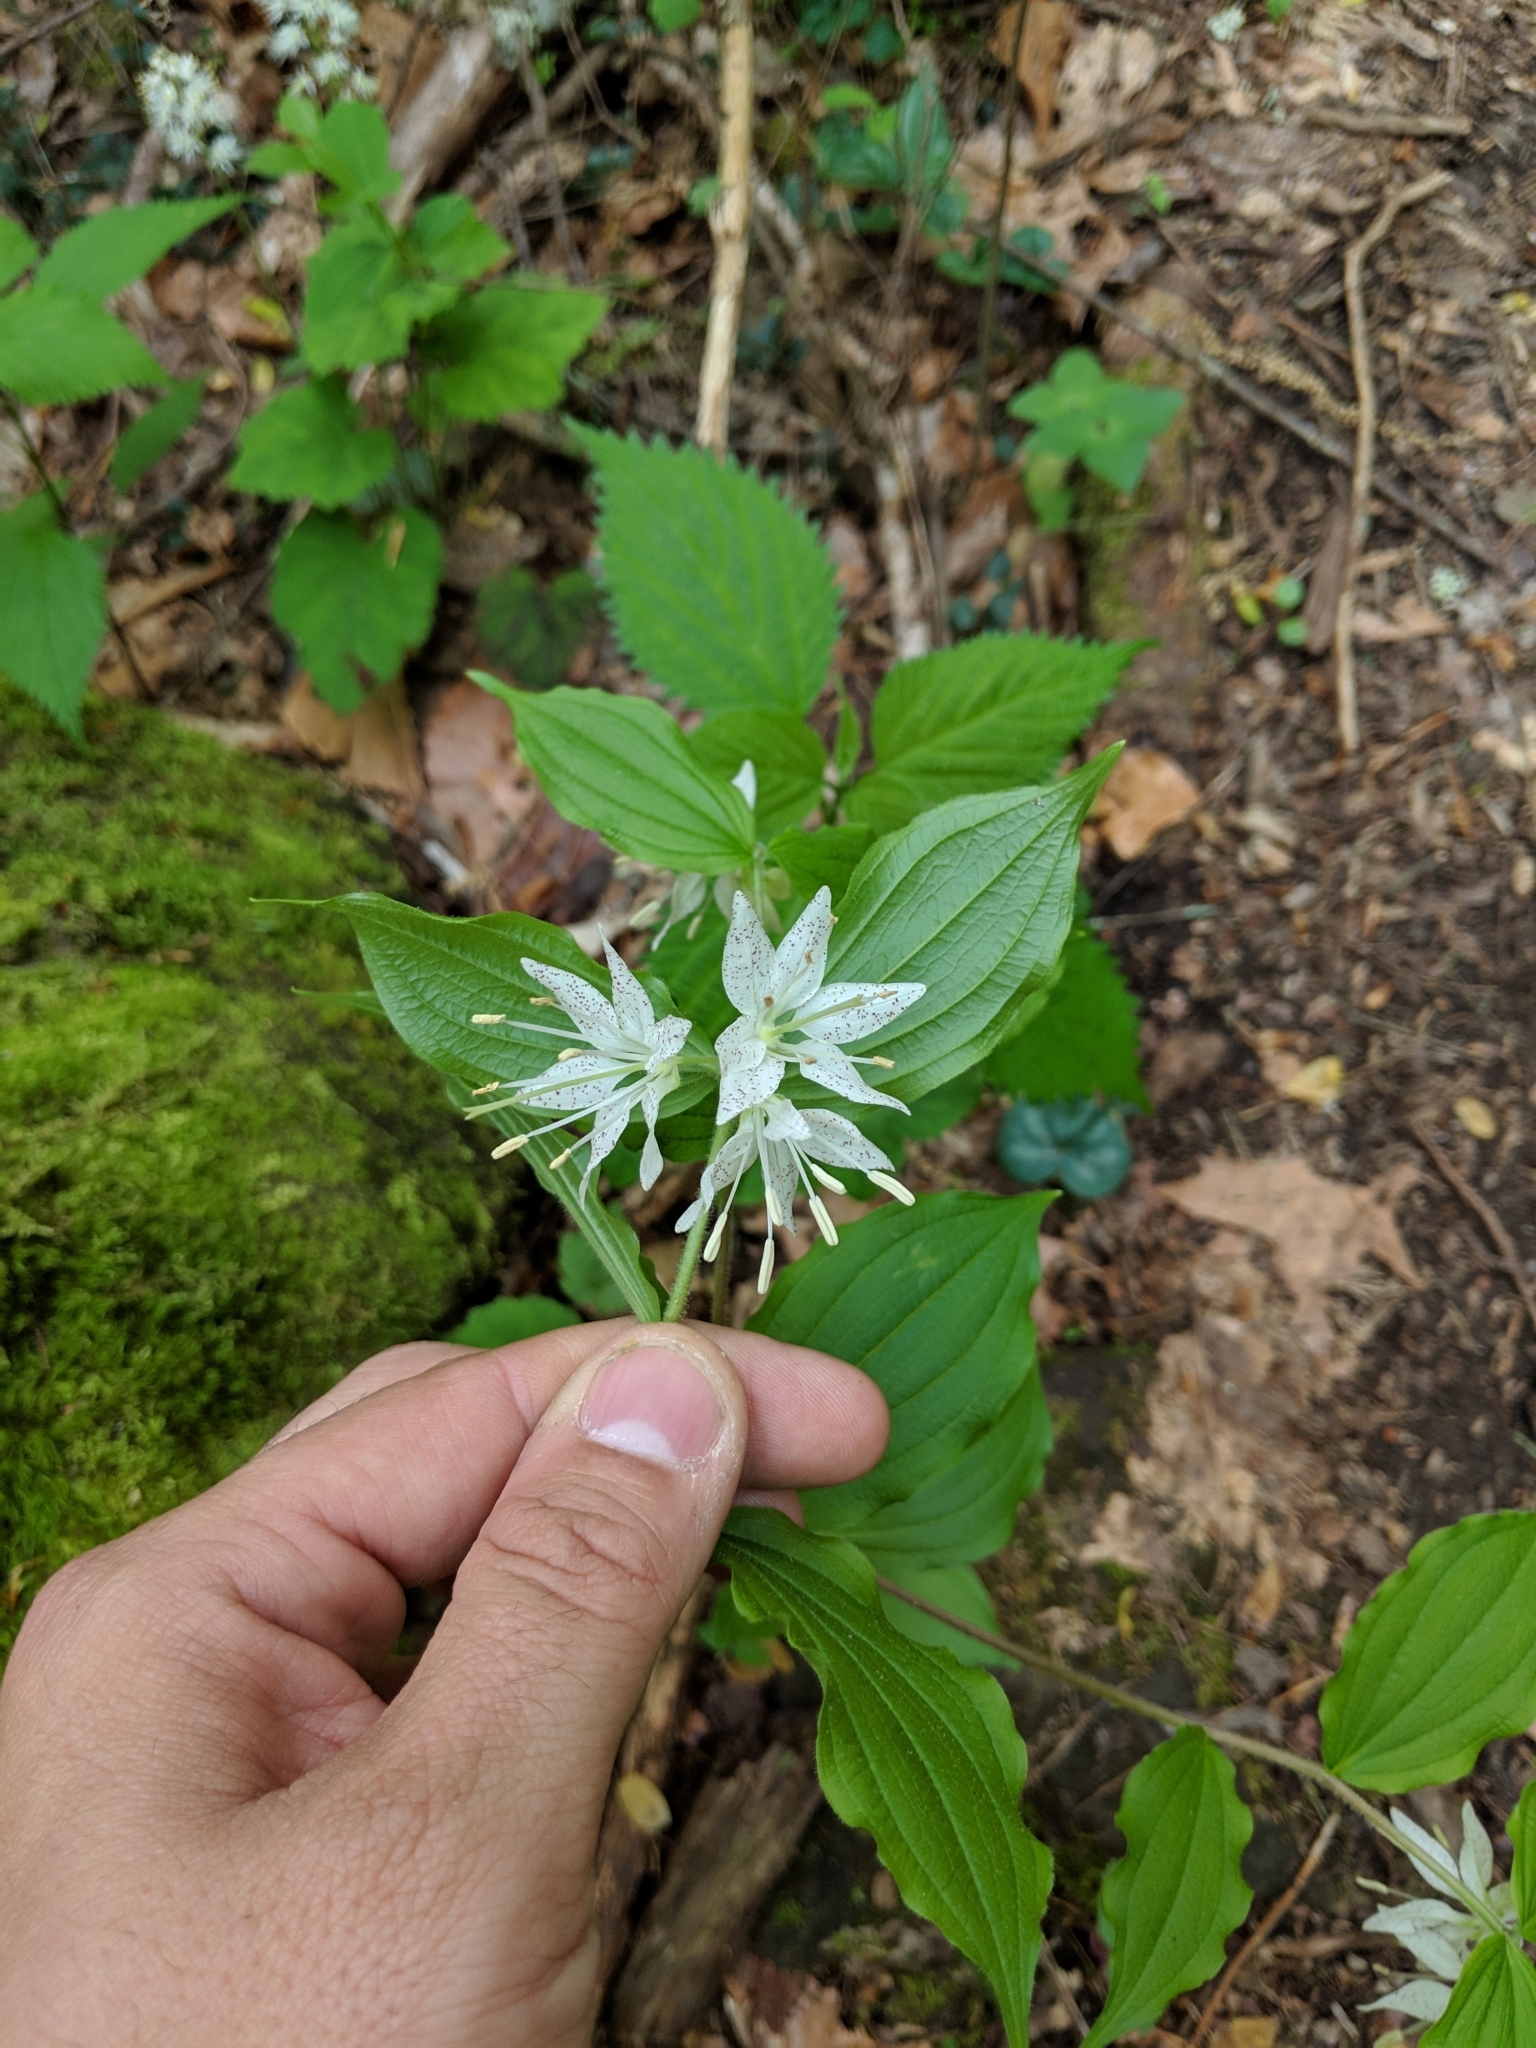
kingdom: Plantae
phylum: Tracheophyta
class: Liliopsida
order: Liliales
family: Liliaceae
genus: Prosartes
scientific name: Prosartes maculata
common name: Yellow mandarin
